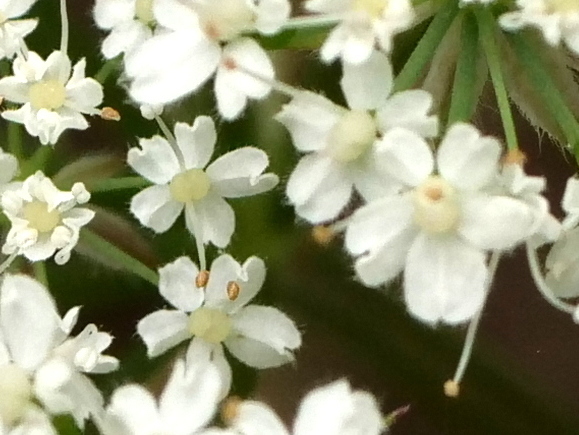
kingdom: Plantae
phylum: Tracheophyta
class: Magnoliopsida
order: Apiales
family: Apiaceae
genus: Chaerophyllum
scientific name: Chaerophyllum hirsutum
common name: Hairy chervil
